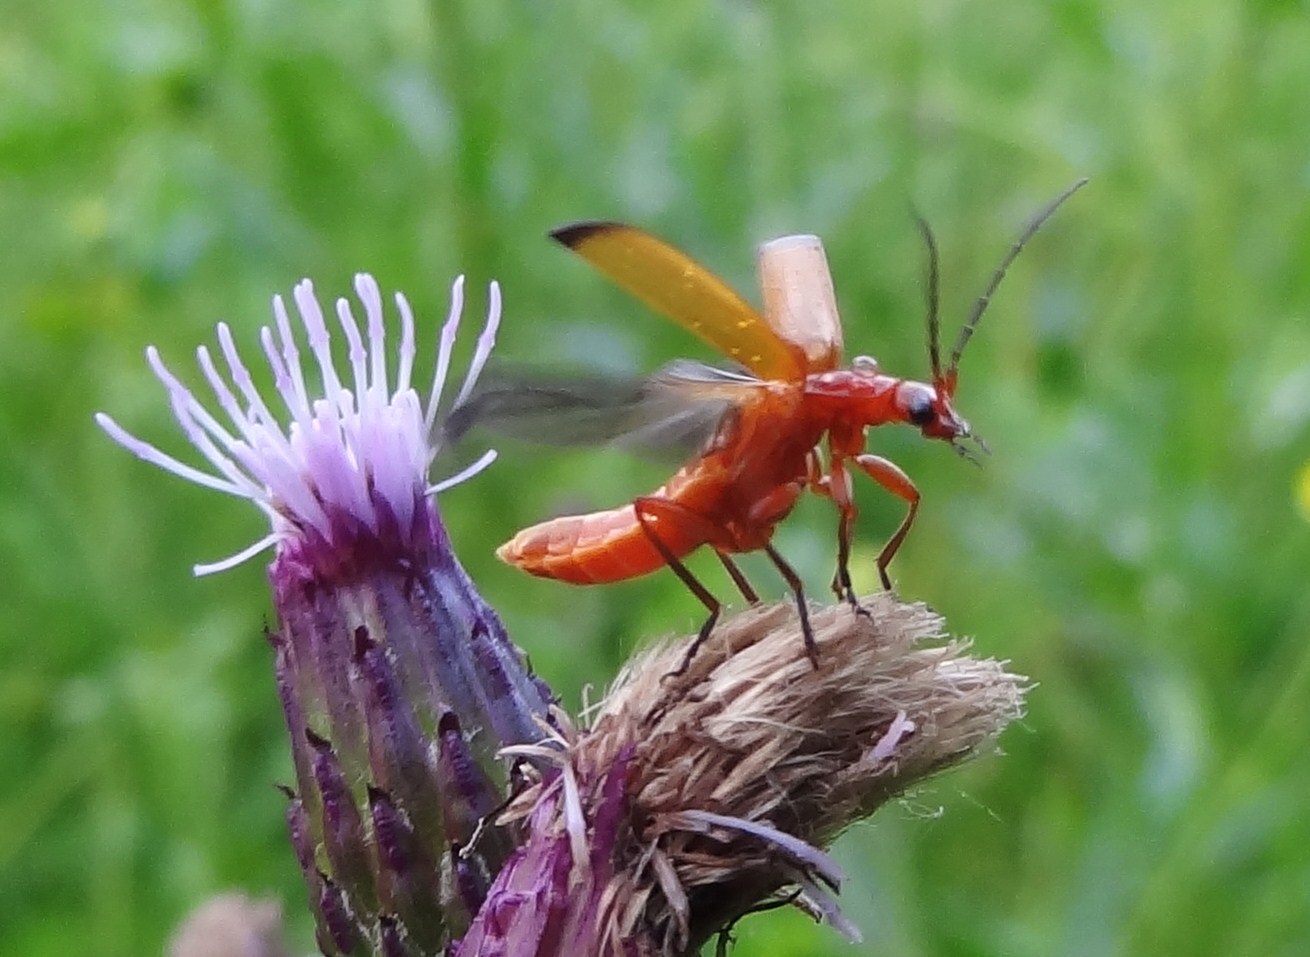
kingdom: Animalia
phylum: Arthropoda
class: Insecta
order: Coleoptera
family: Cantharidae
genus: Rhagonycha
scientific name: Rhagonycha fulva
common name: Common red soldier beetle
